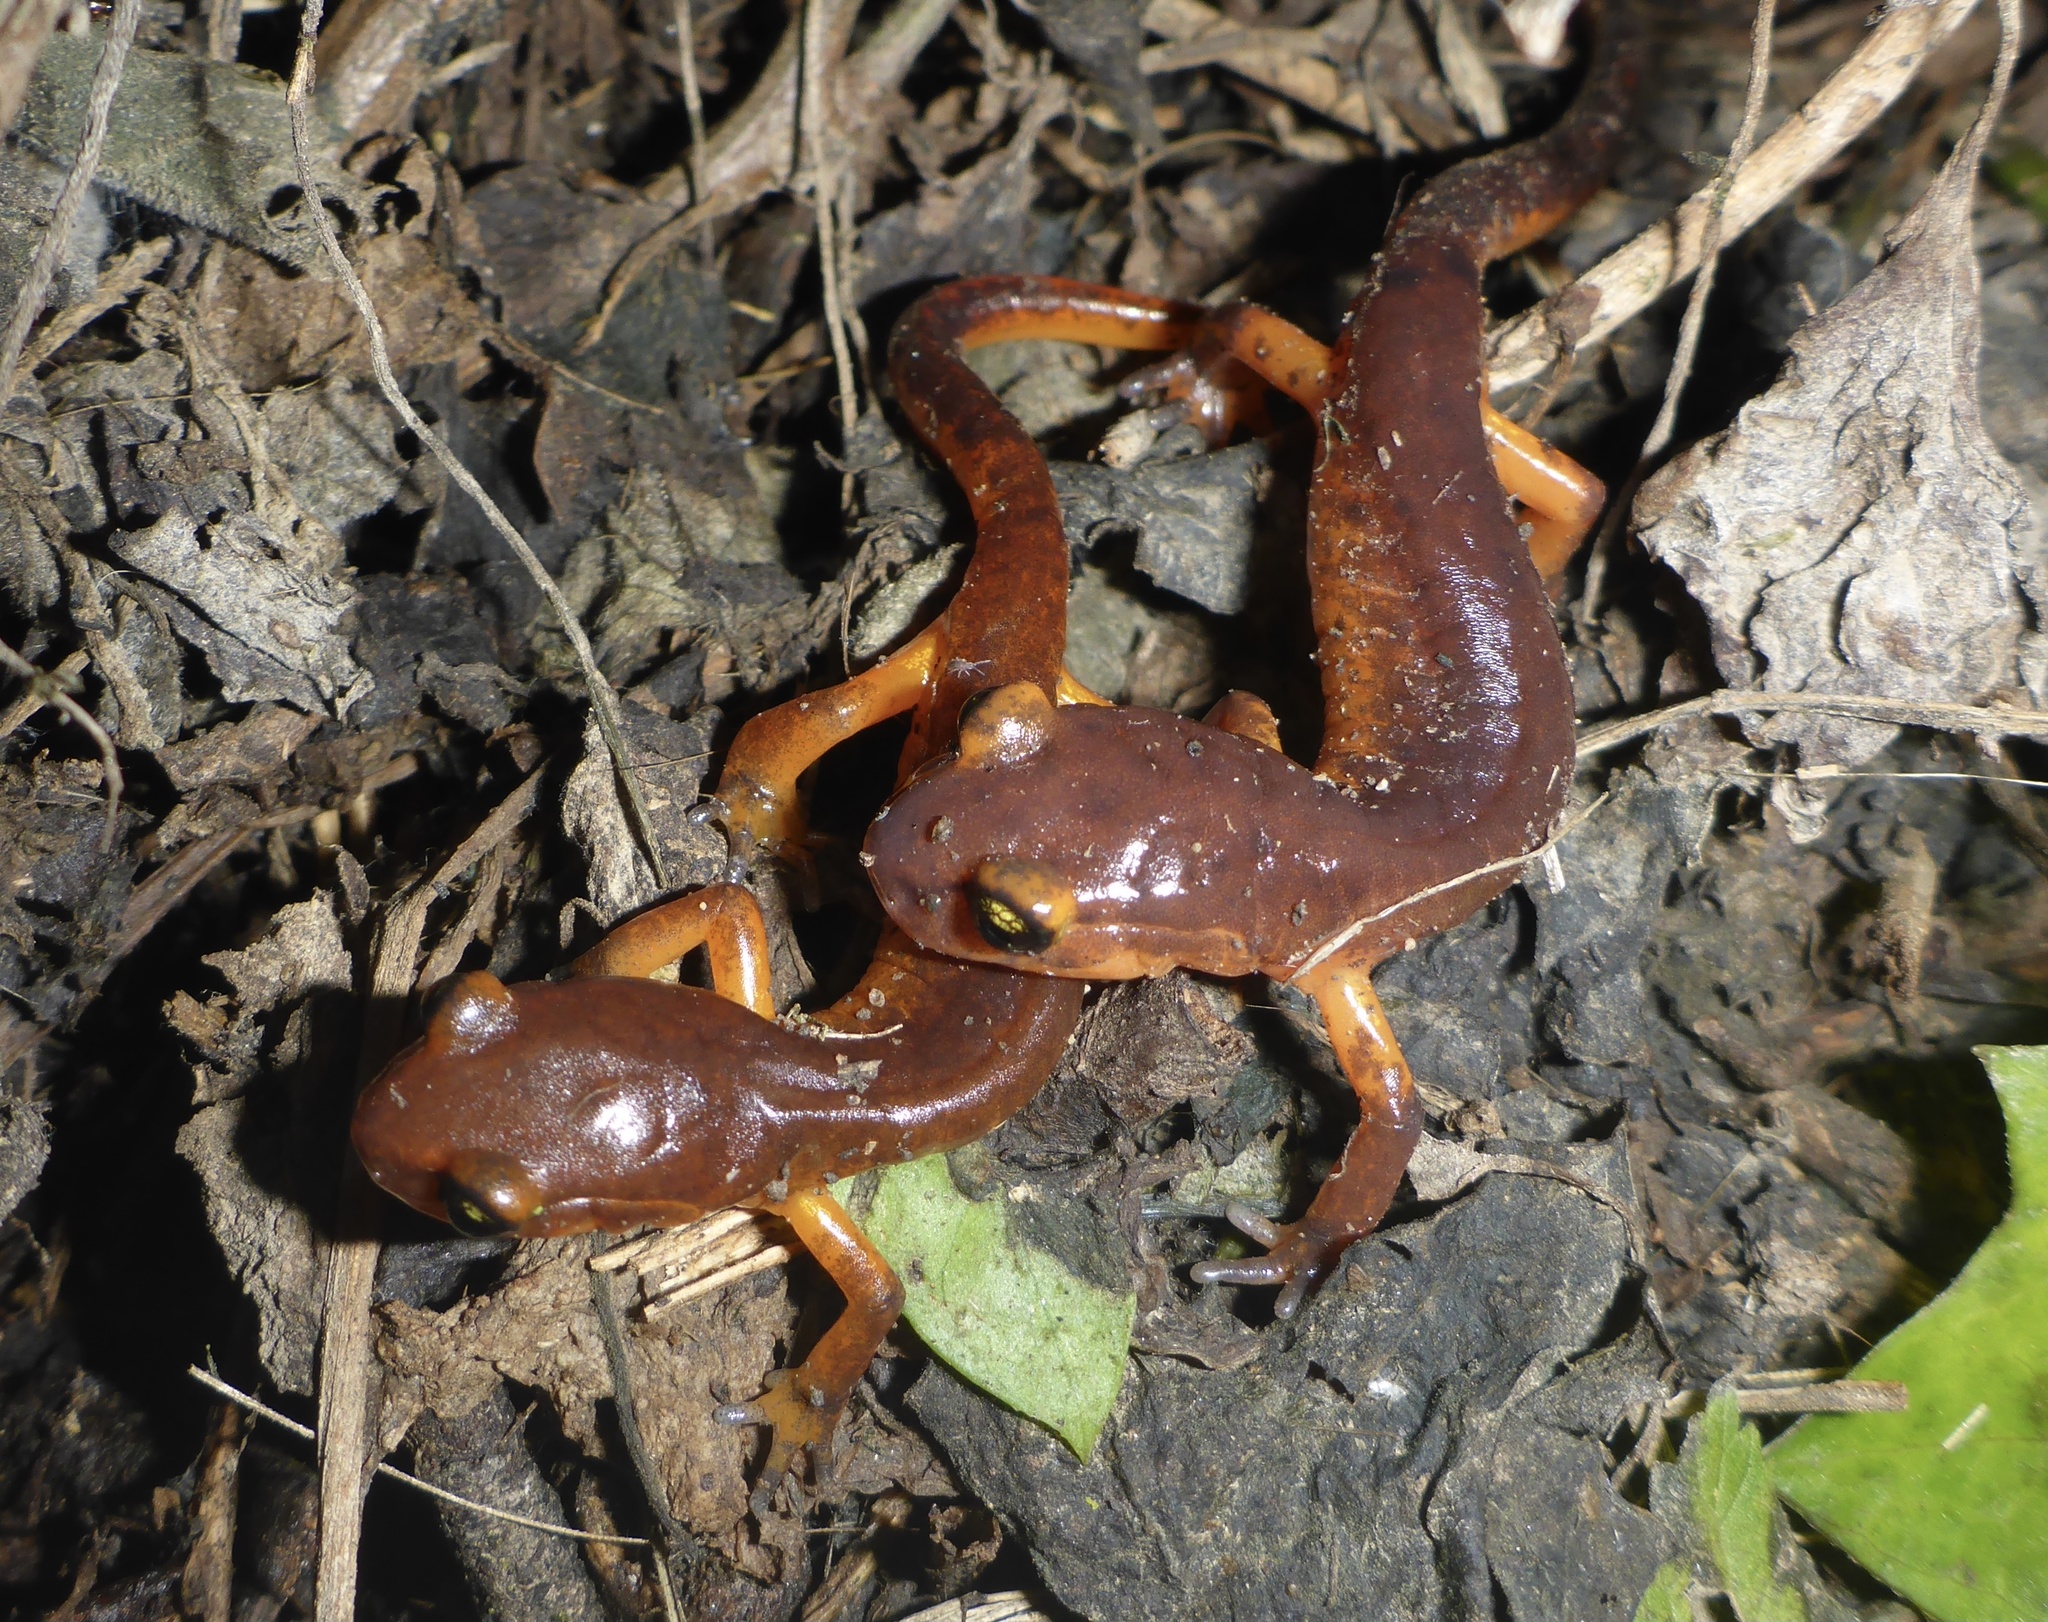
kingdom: Animalia
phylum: Chordata
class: Amphibia
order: Caudata
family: Plethodontidae
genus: Ensatina
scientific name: Ensatina eschscholtzii
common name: Ensatina
